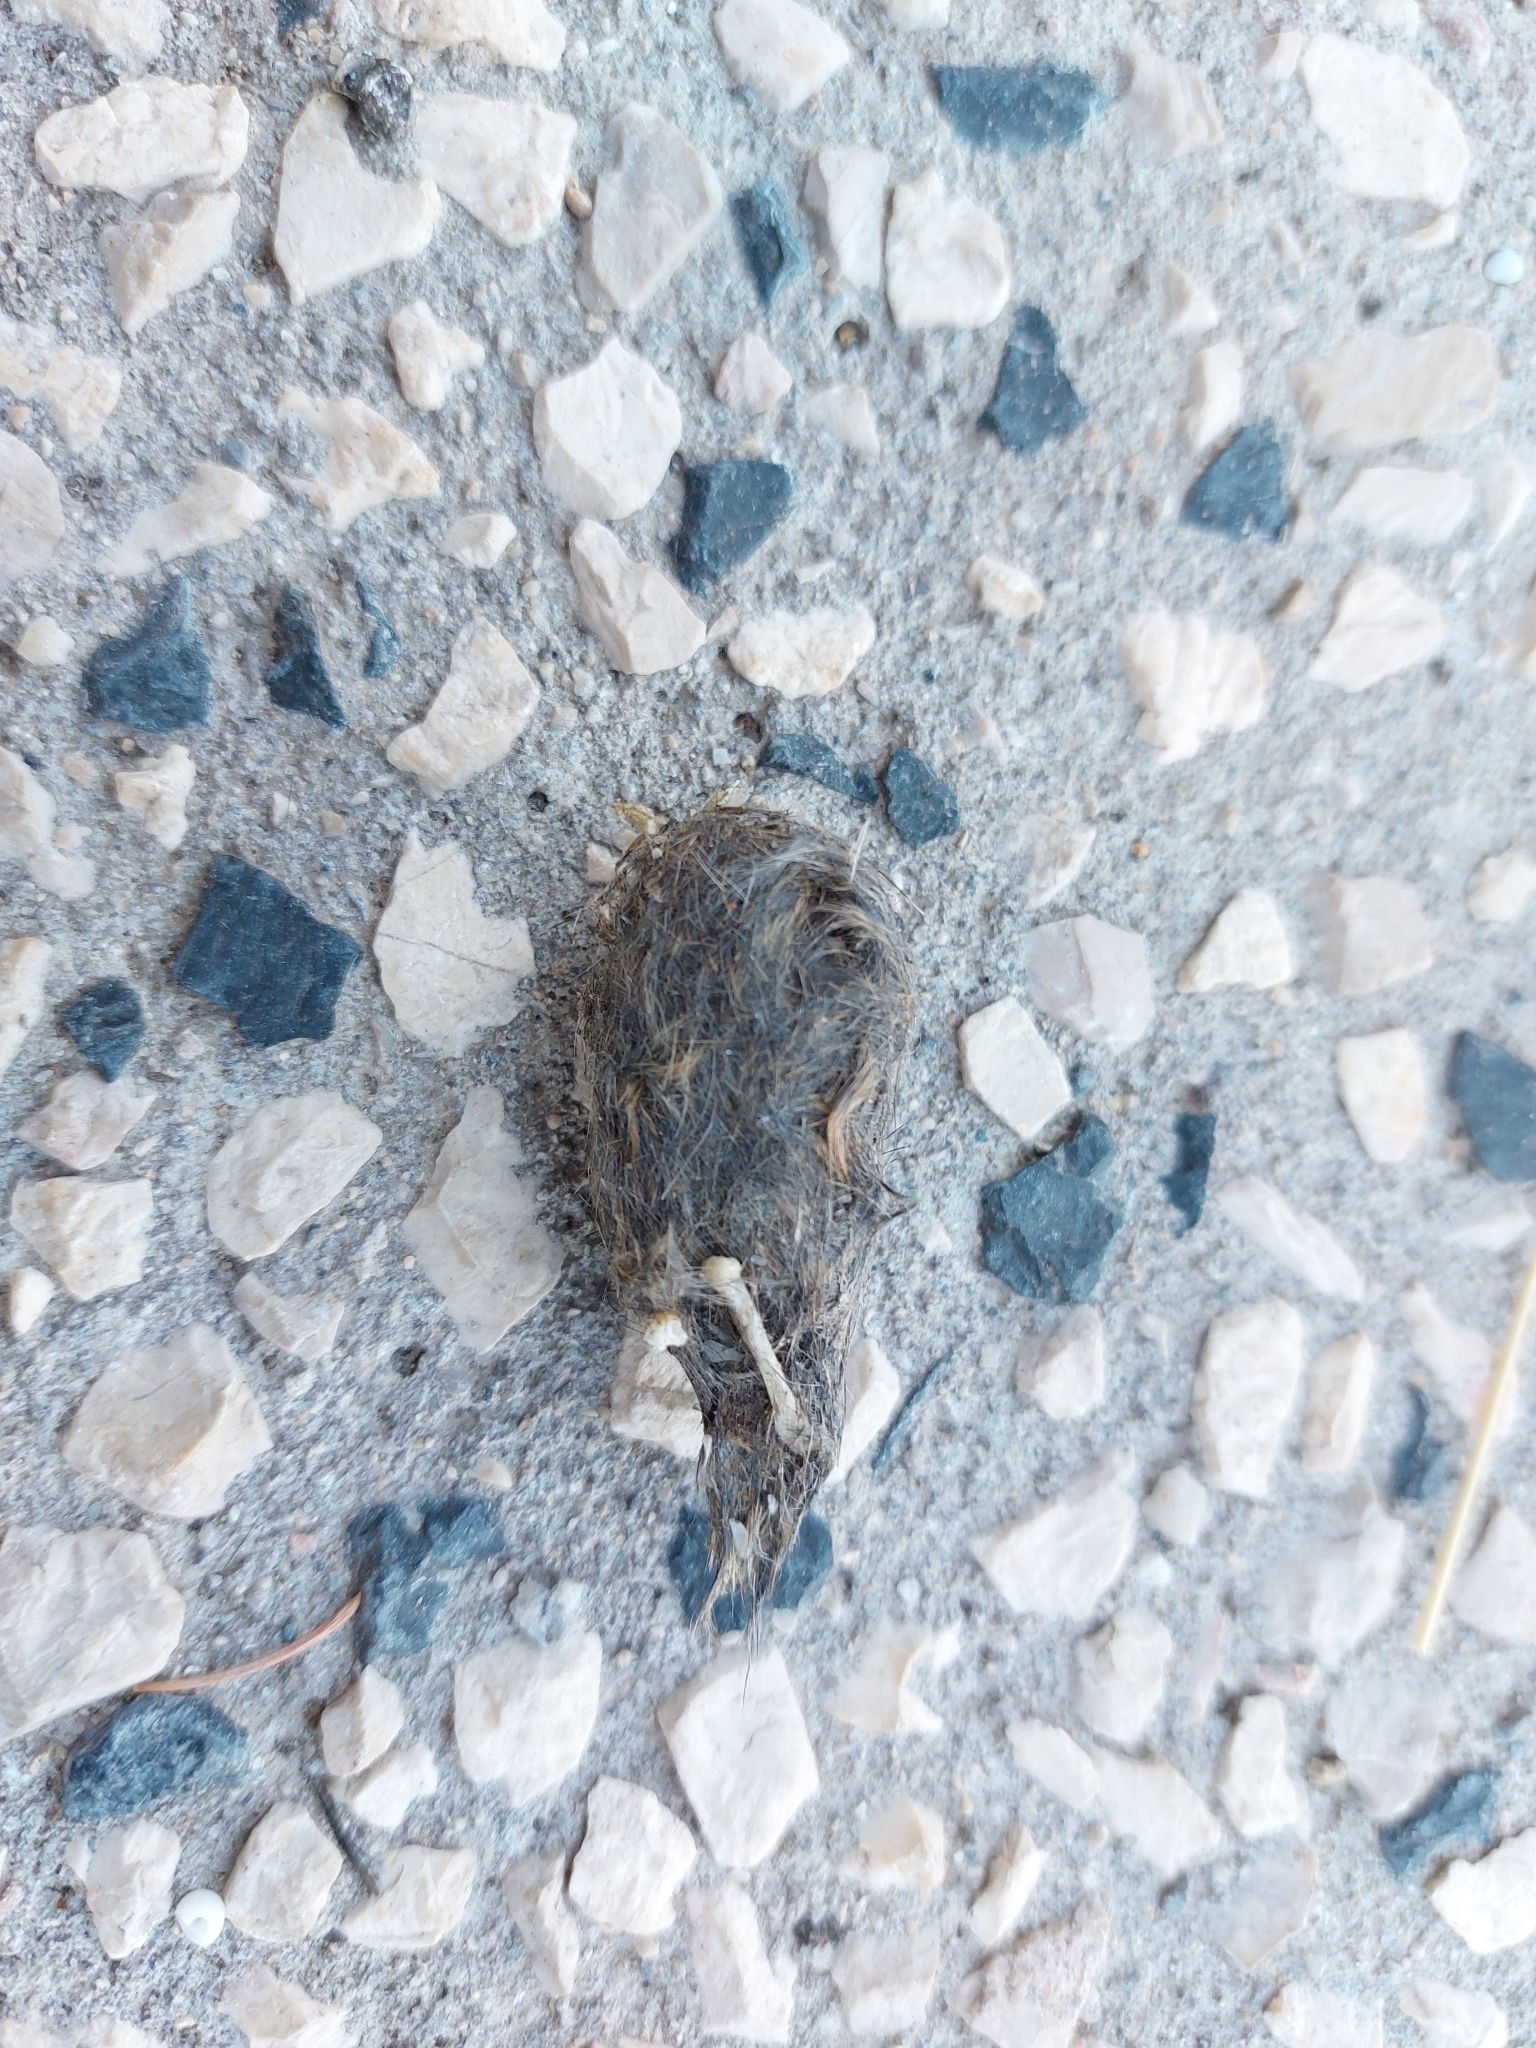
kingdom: Animalia
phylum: Chordata
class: Aves
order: Falconiformes
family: Falconidae
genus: Falco
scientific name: Falco tinnunculus
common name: Common kestrel
